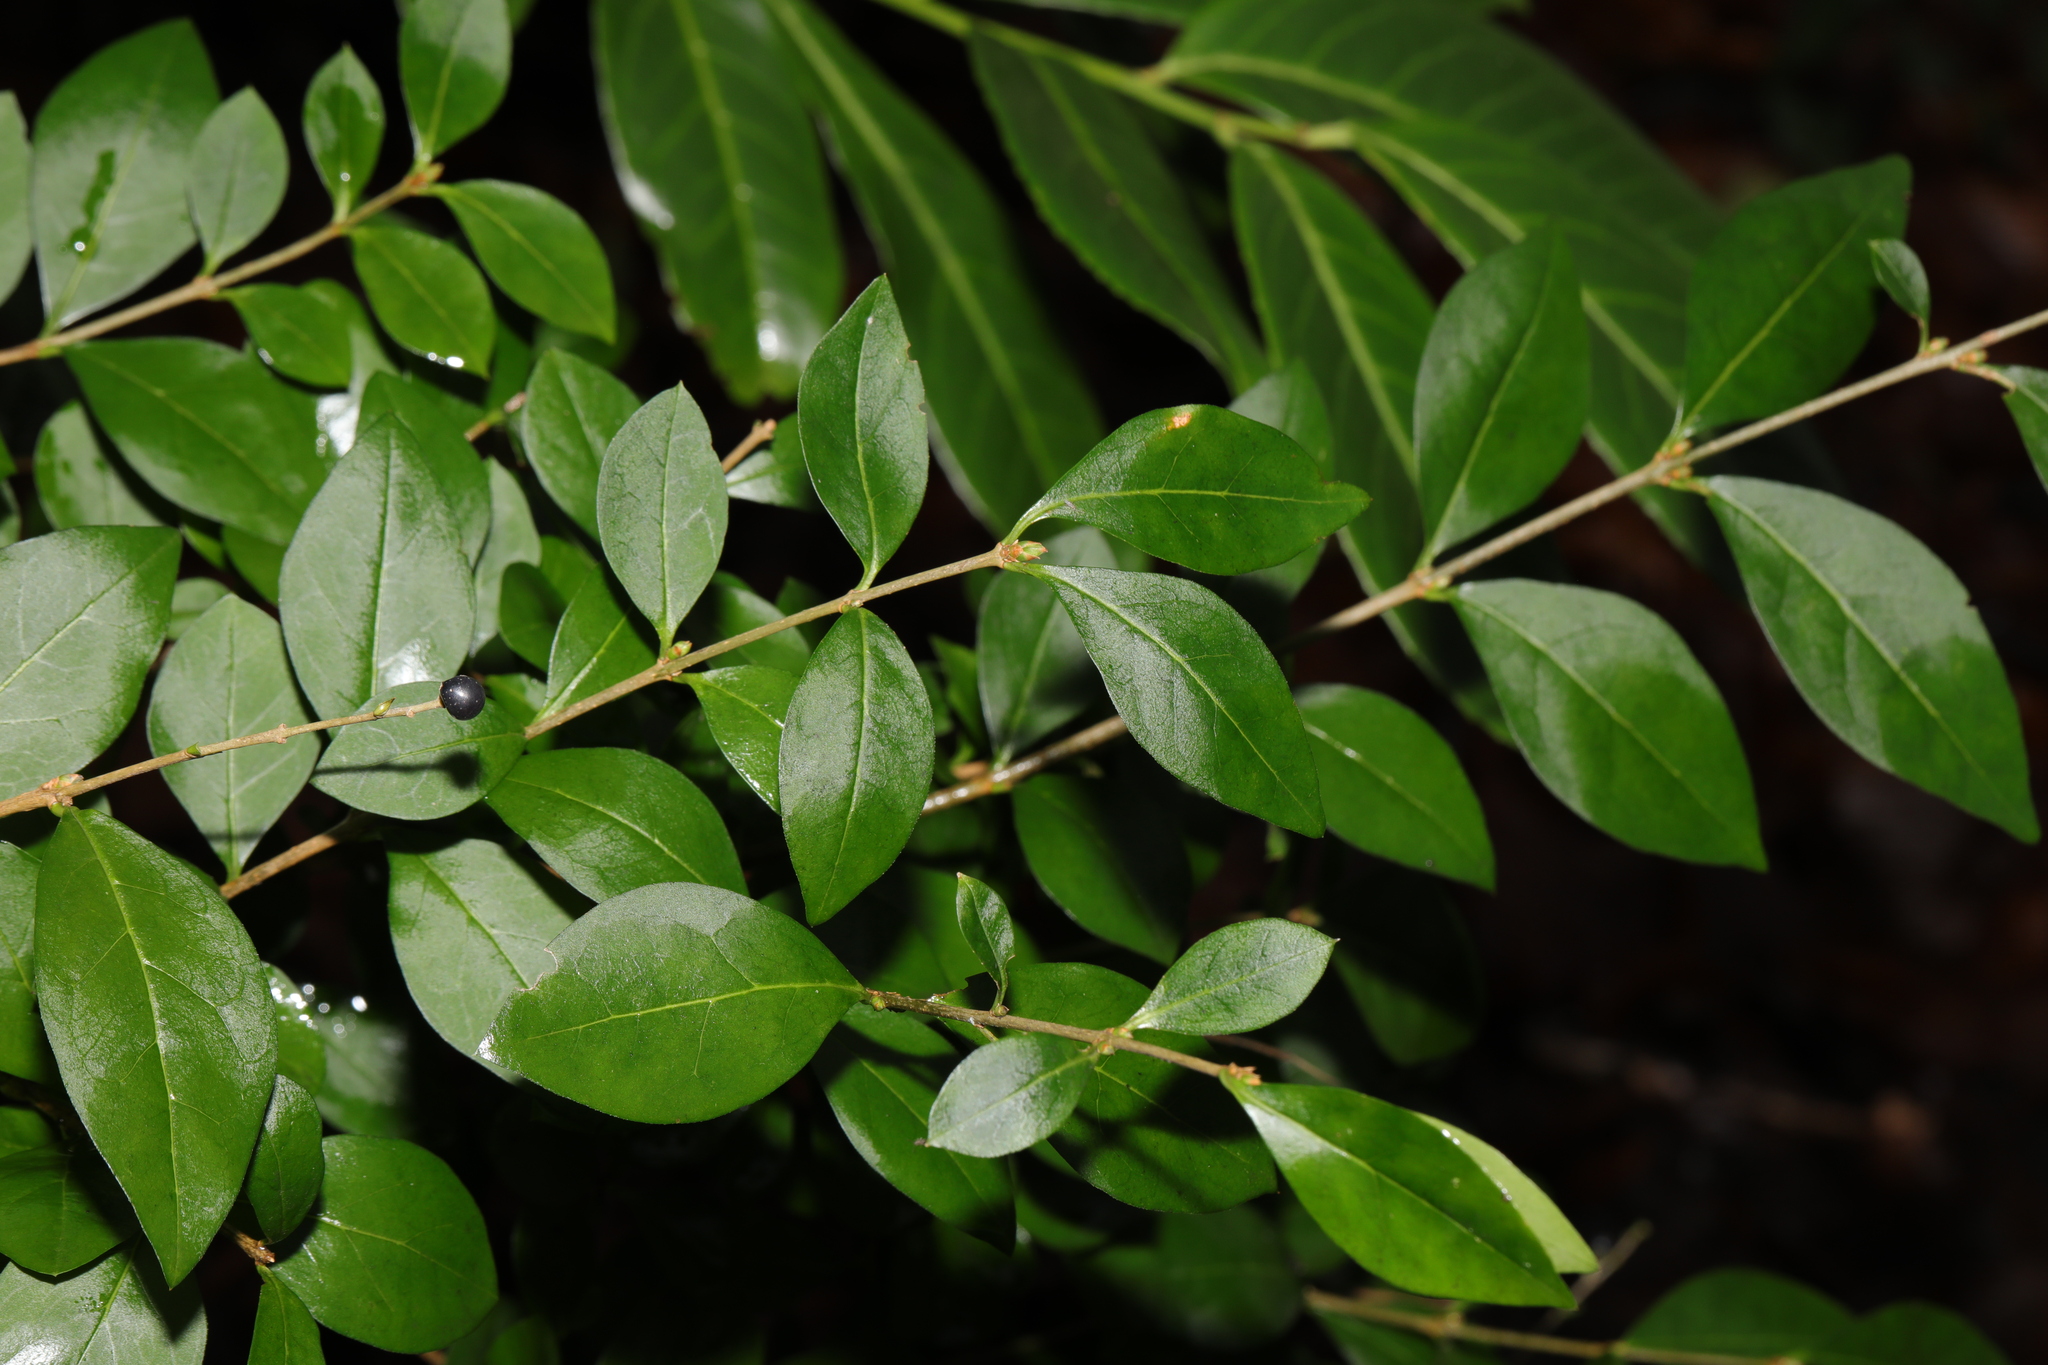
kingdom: Plantae
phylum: Tracheophyta
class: Magnoliopsida
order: Lamiales
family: Oleaceae
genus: Ligustrum
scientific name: Ligustrum ovalifolium
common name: California privet
